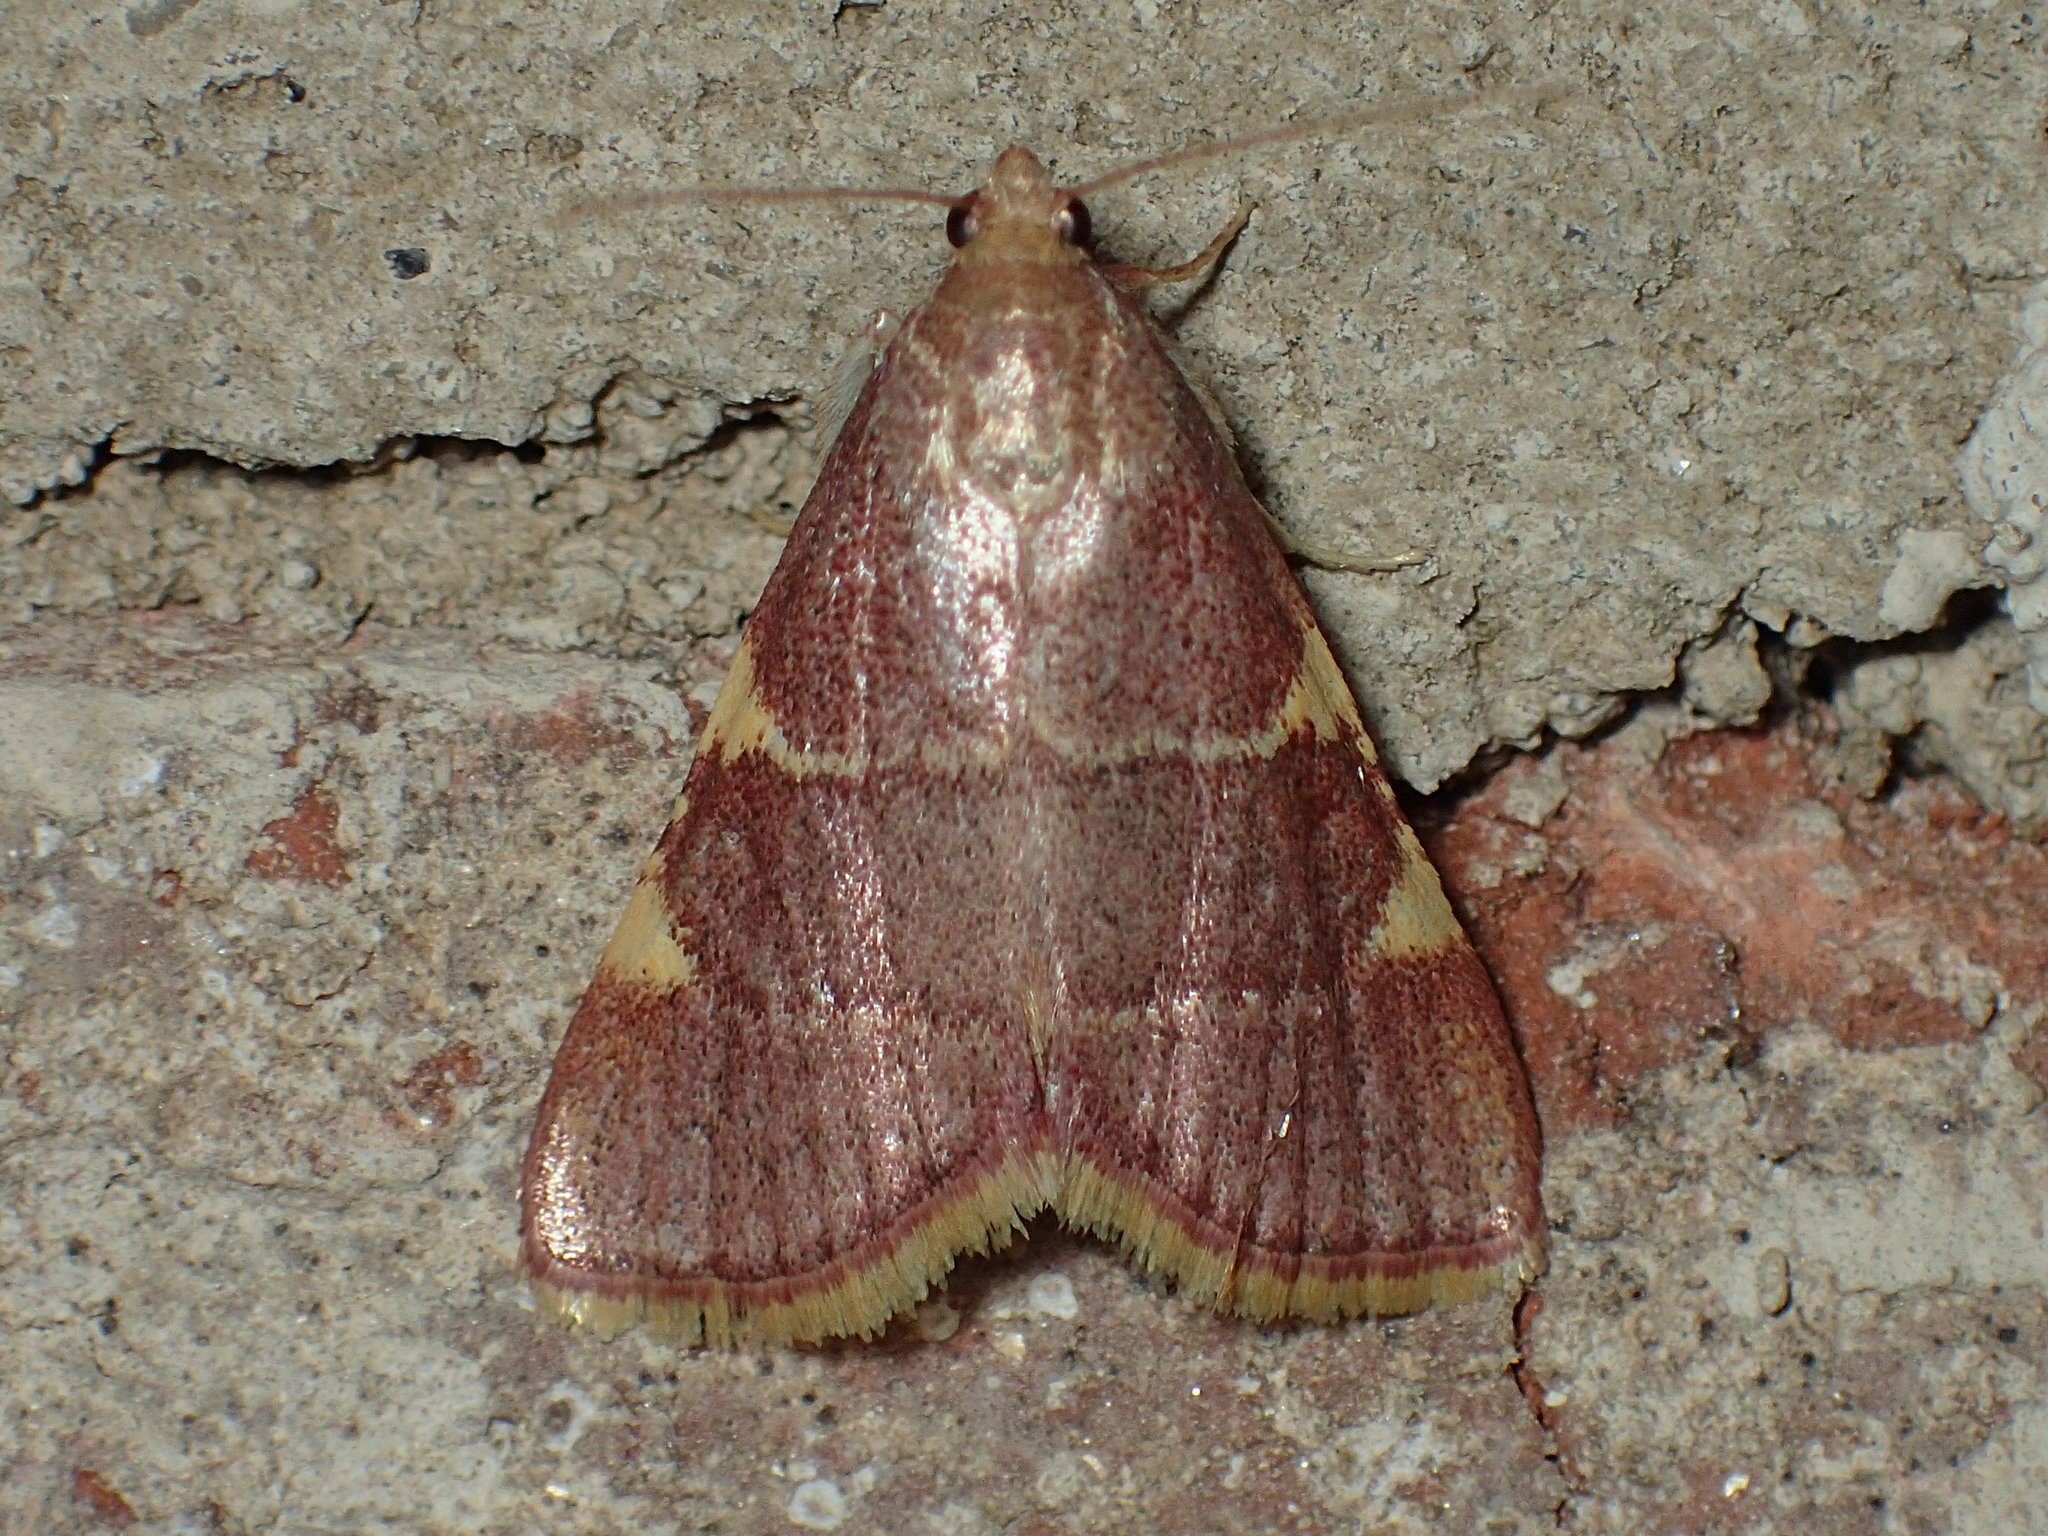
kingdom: Animalia
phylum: Arthropoda
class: Insecta
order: Lepidoptera
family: Pyralidae
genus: Hypsopygia
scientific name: Hypsopygia olinalis
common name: Yellow-fringed dolichomia moth
